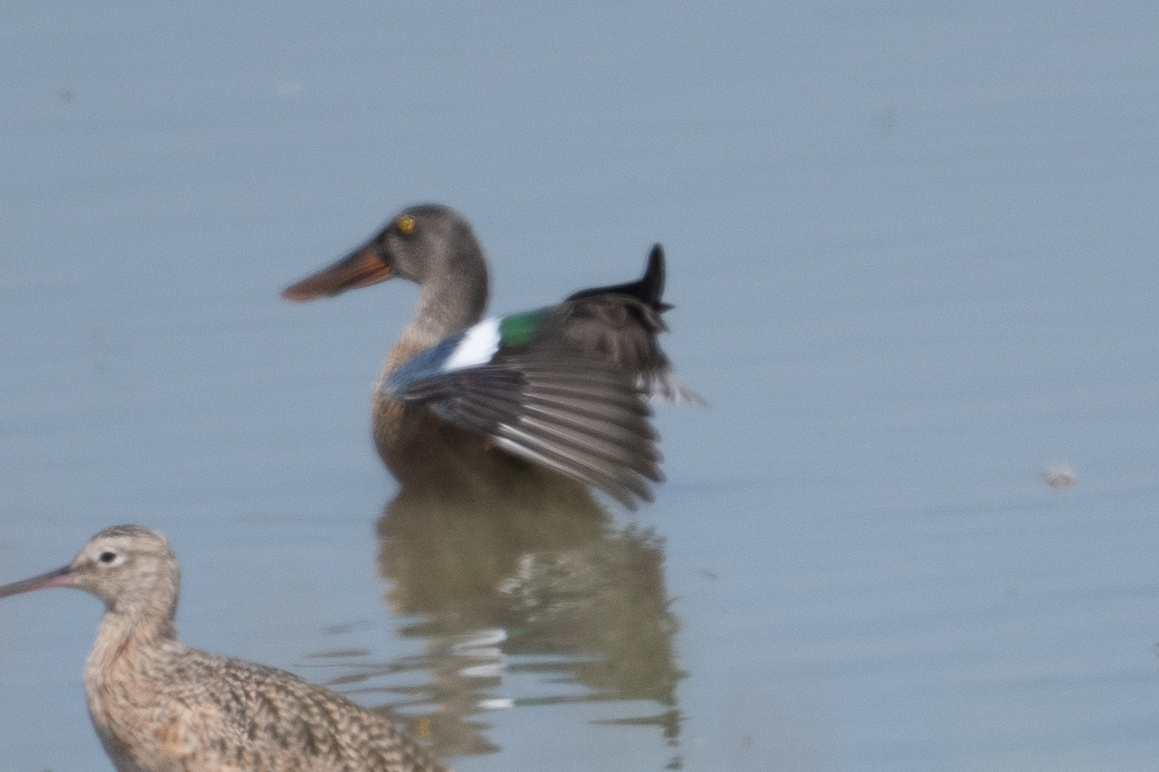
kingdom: Animalia
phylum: Chordata
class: Aves
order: Anseriformes
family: Anatidae
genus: Spatula
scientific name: Spatula clypeata
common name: Northern shoveler
